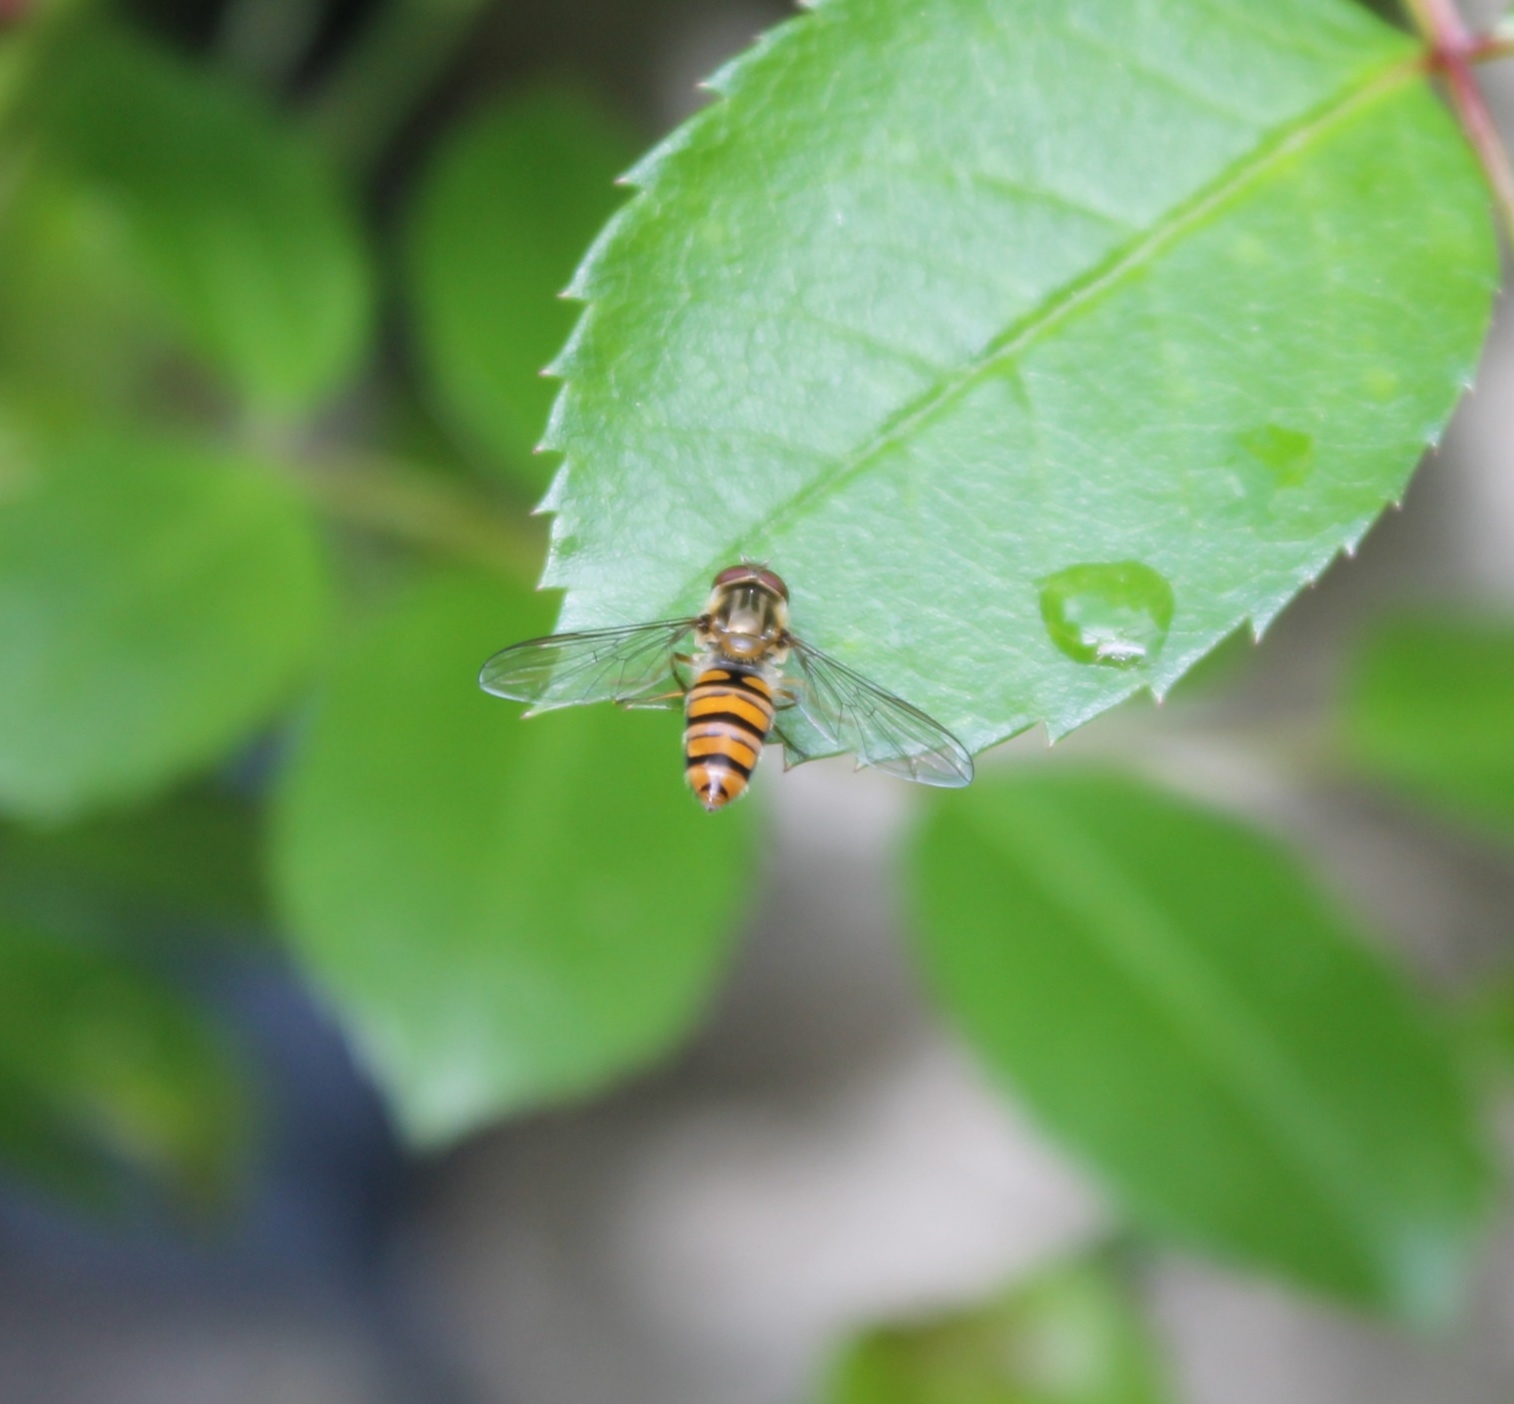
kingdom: Animalia
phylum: Arthropoda
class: Insecta
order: Diptera
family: Syrphidae
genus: Episyrphus
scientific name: Episyrphus balteatus
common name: Marmalade hoverfly
